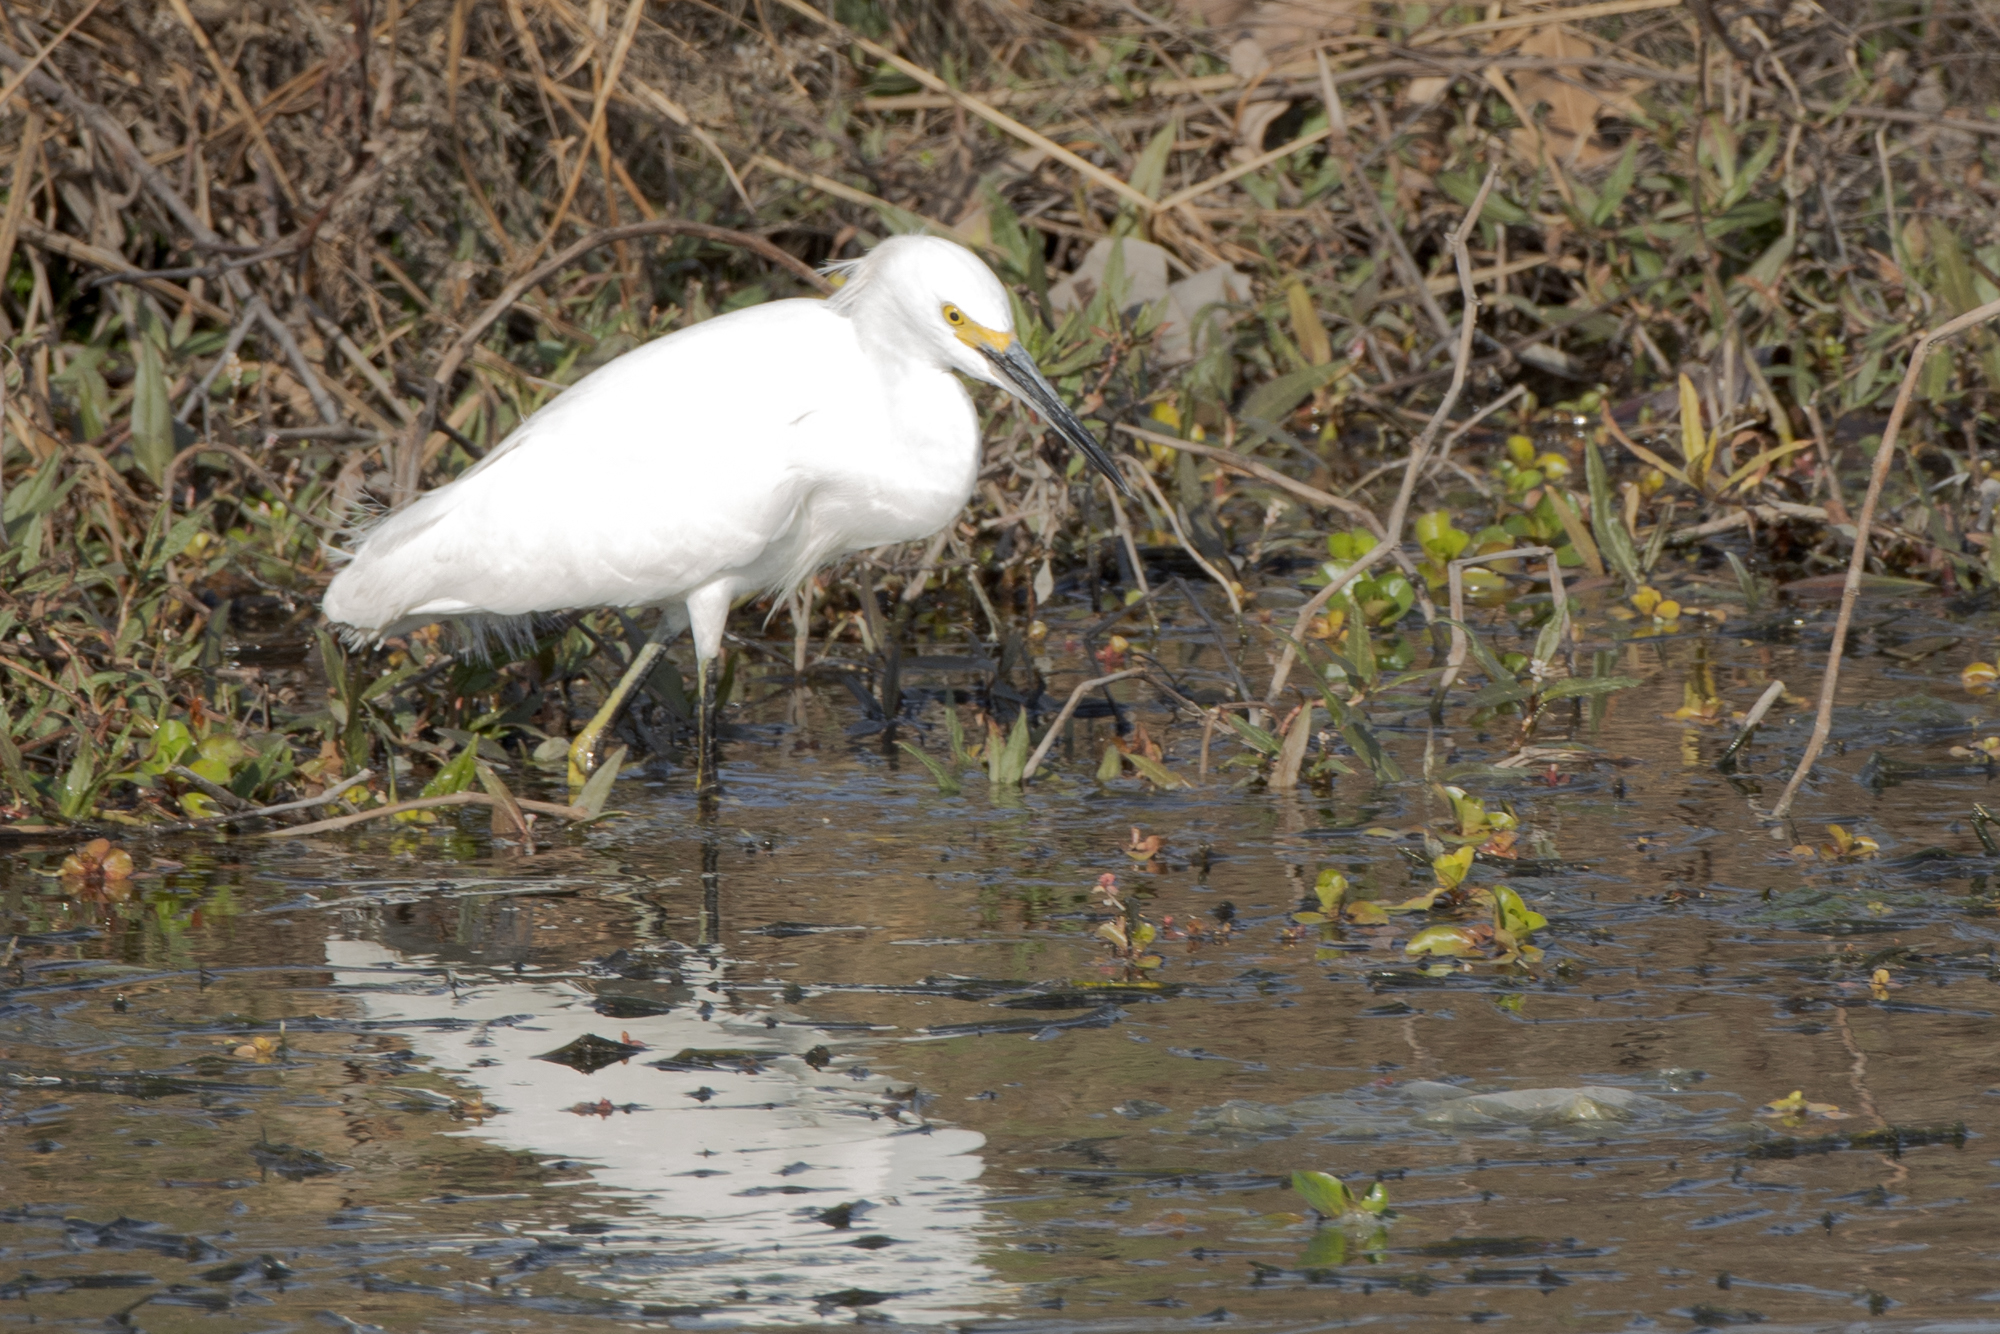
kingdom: Animalia
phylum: Chordata
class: Aves
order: Pelecaniformes
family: Ardeidae
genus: Egretta
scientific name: Egretta thula
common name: Snowy egret
